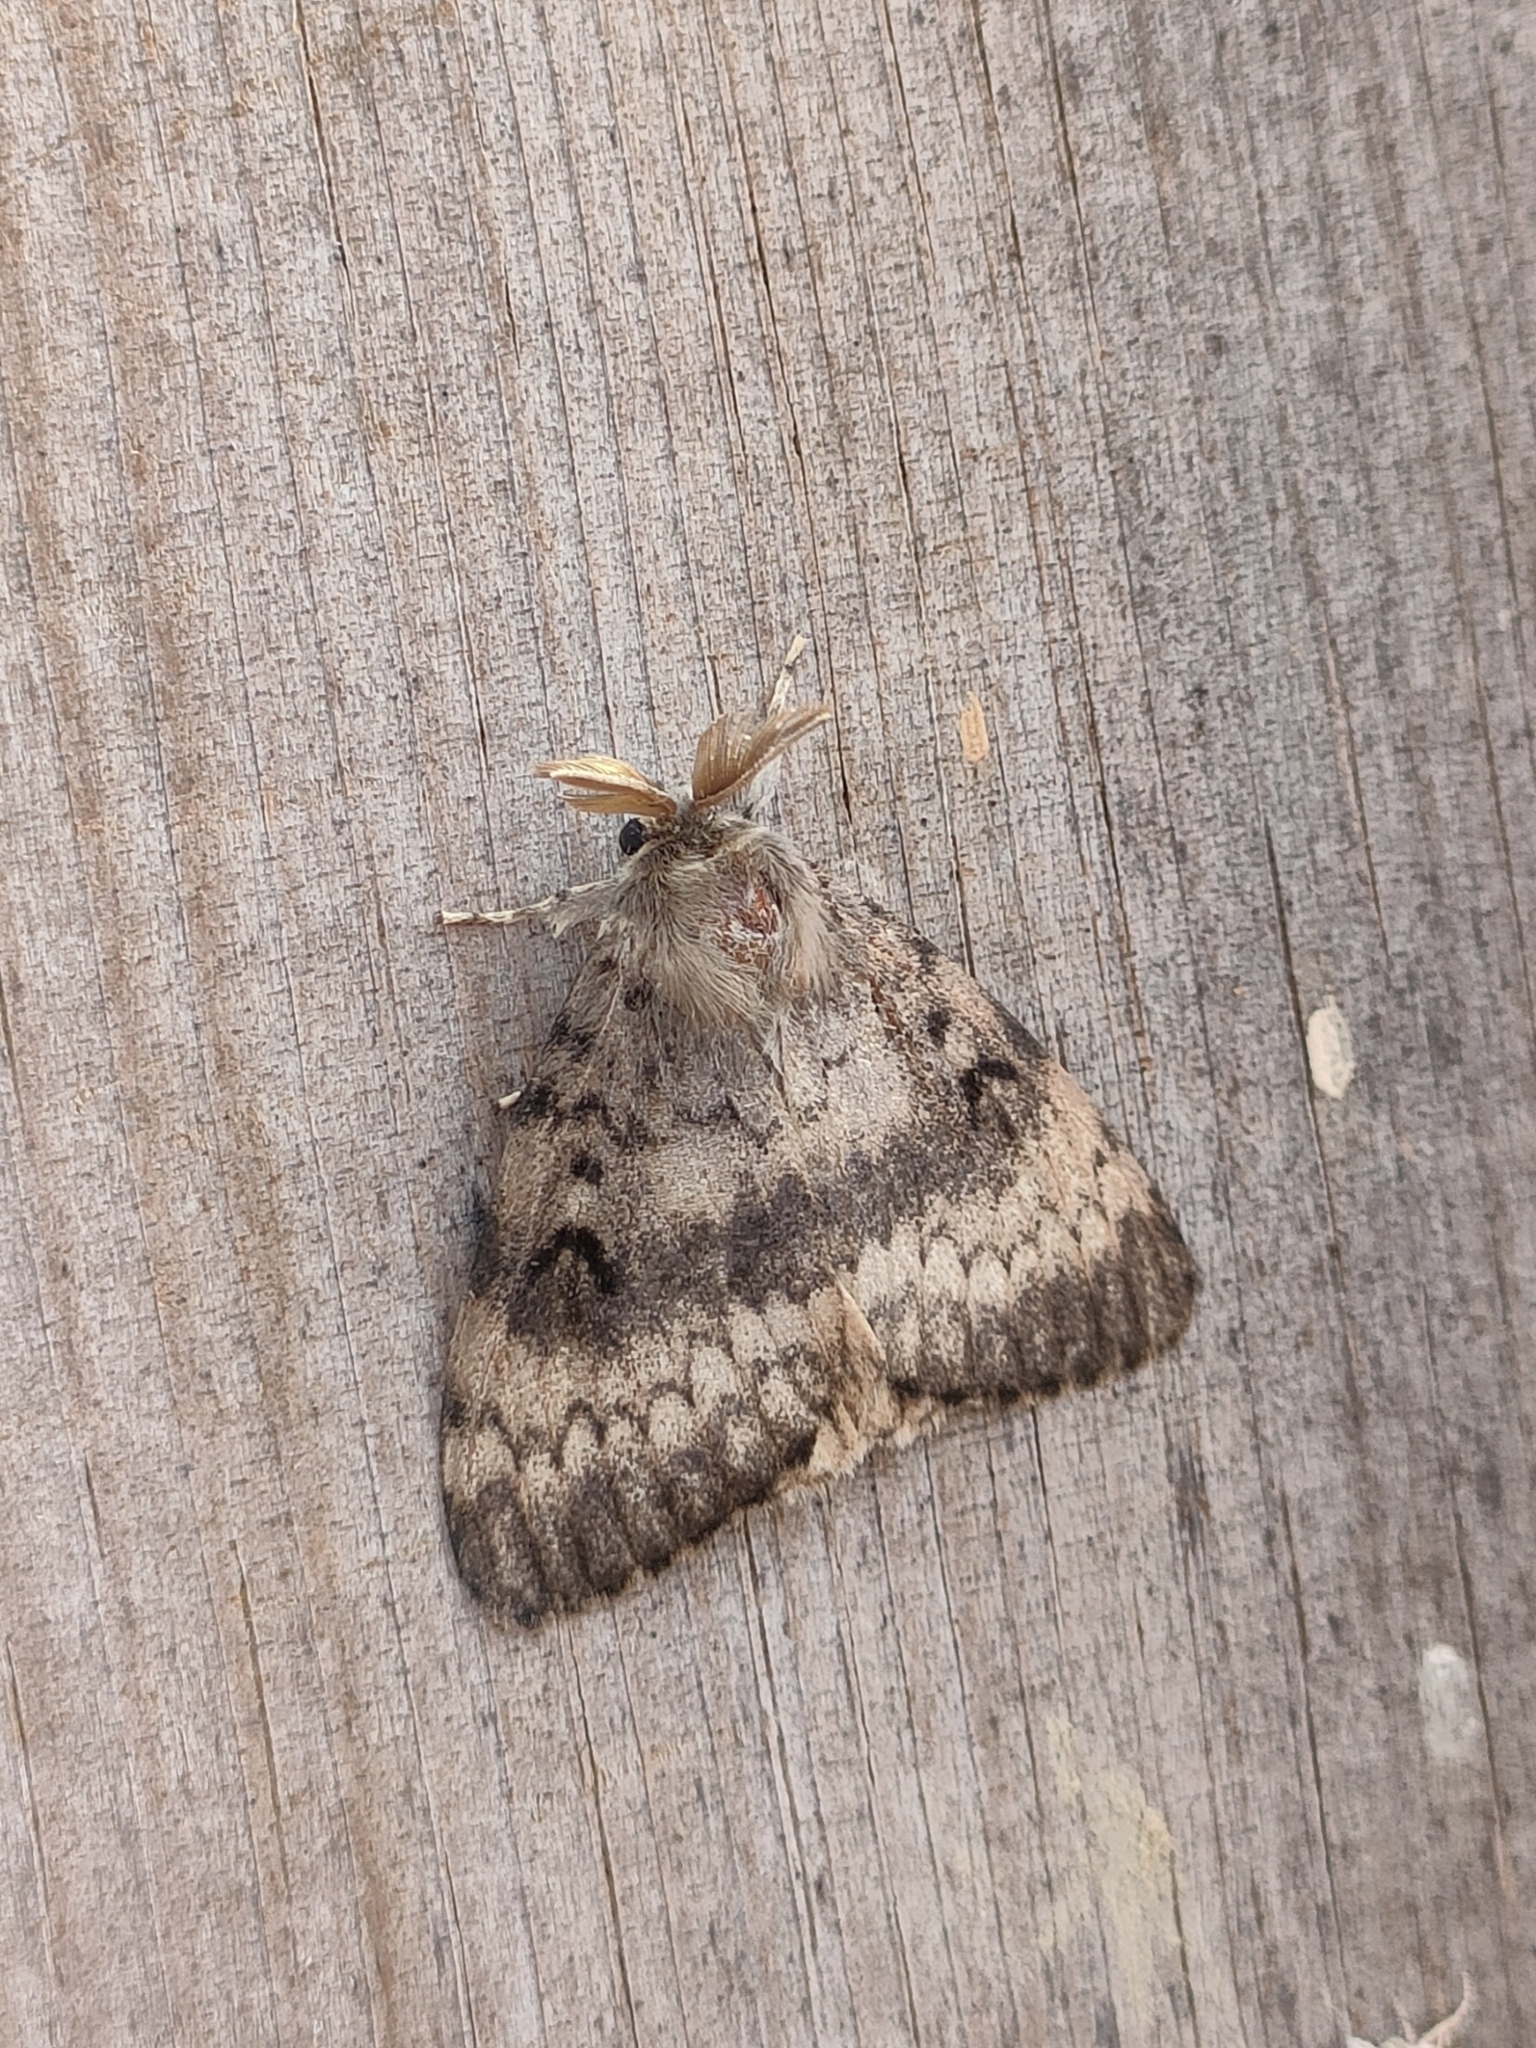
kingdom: Animalia
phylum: Arthropoda
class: Insecta
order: Lepidoptera
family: Erebidae
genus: Lymantria
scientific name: Lymantria dispar
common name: Gypsy moth
